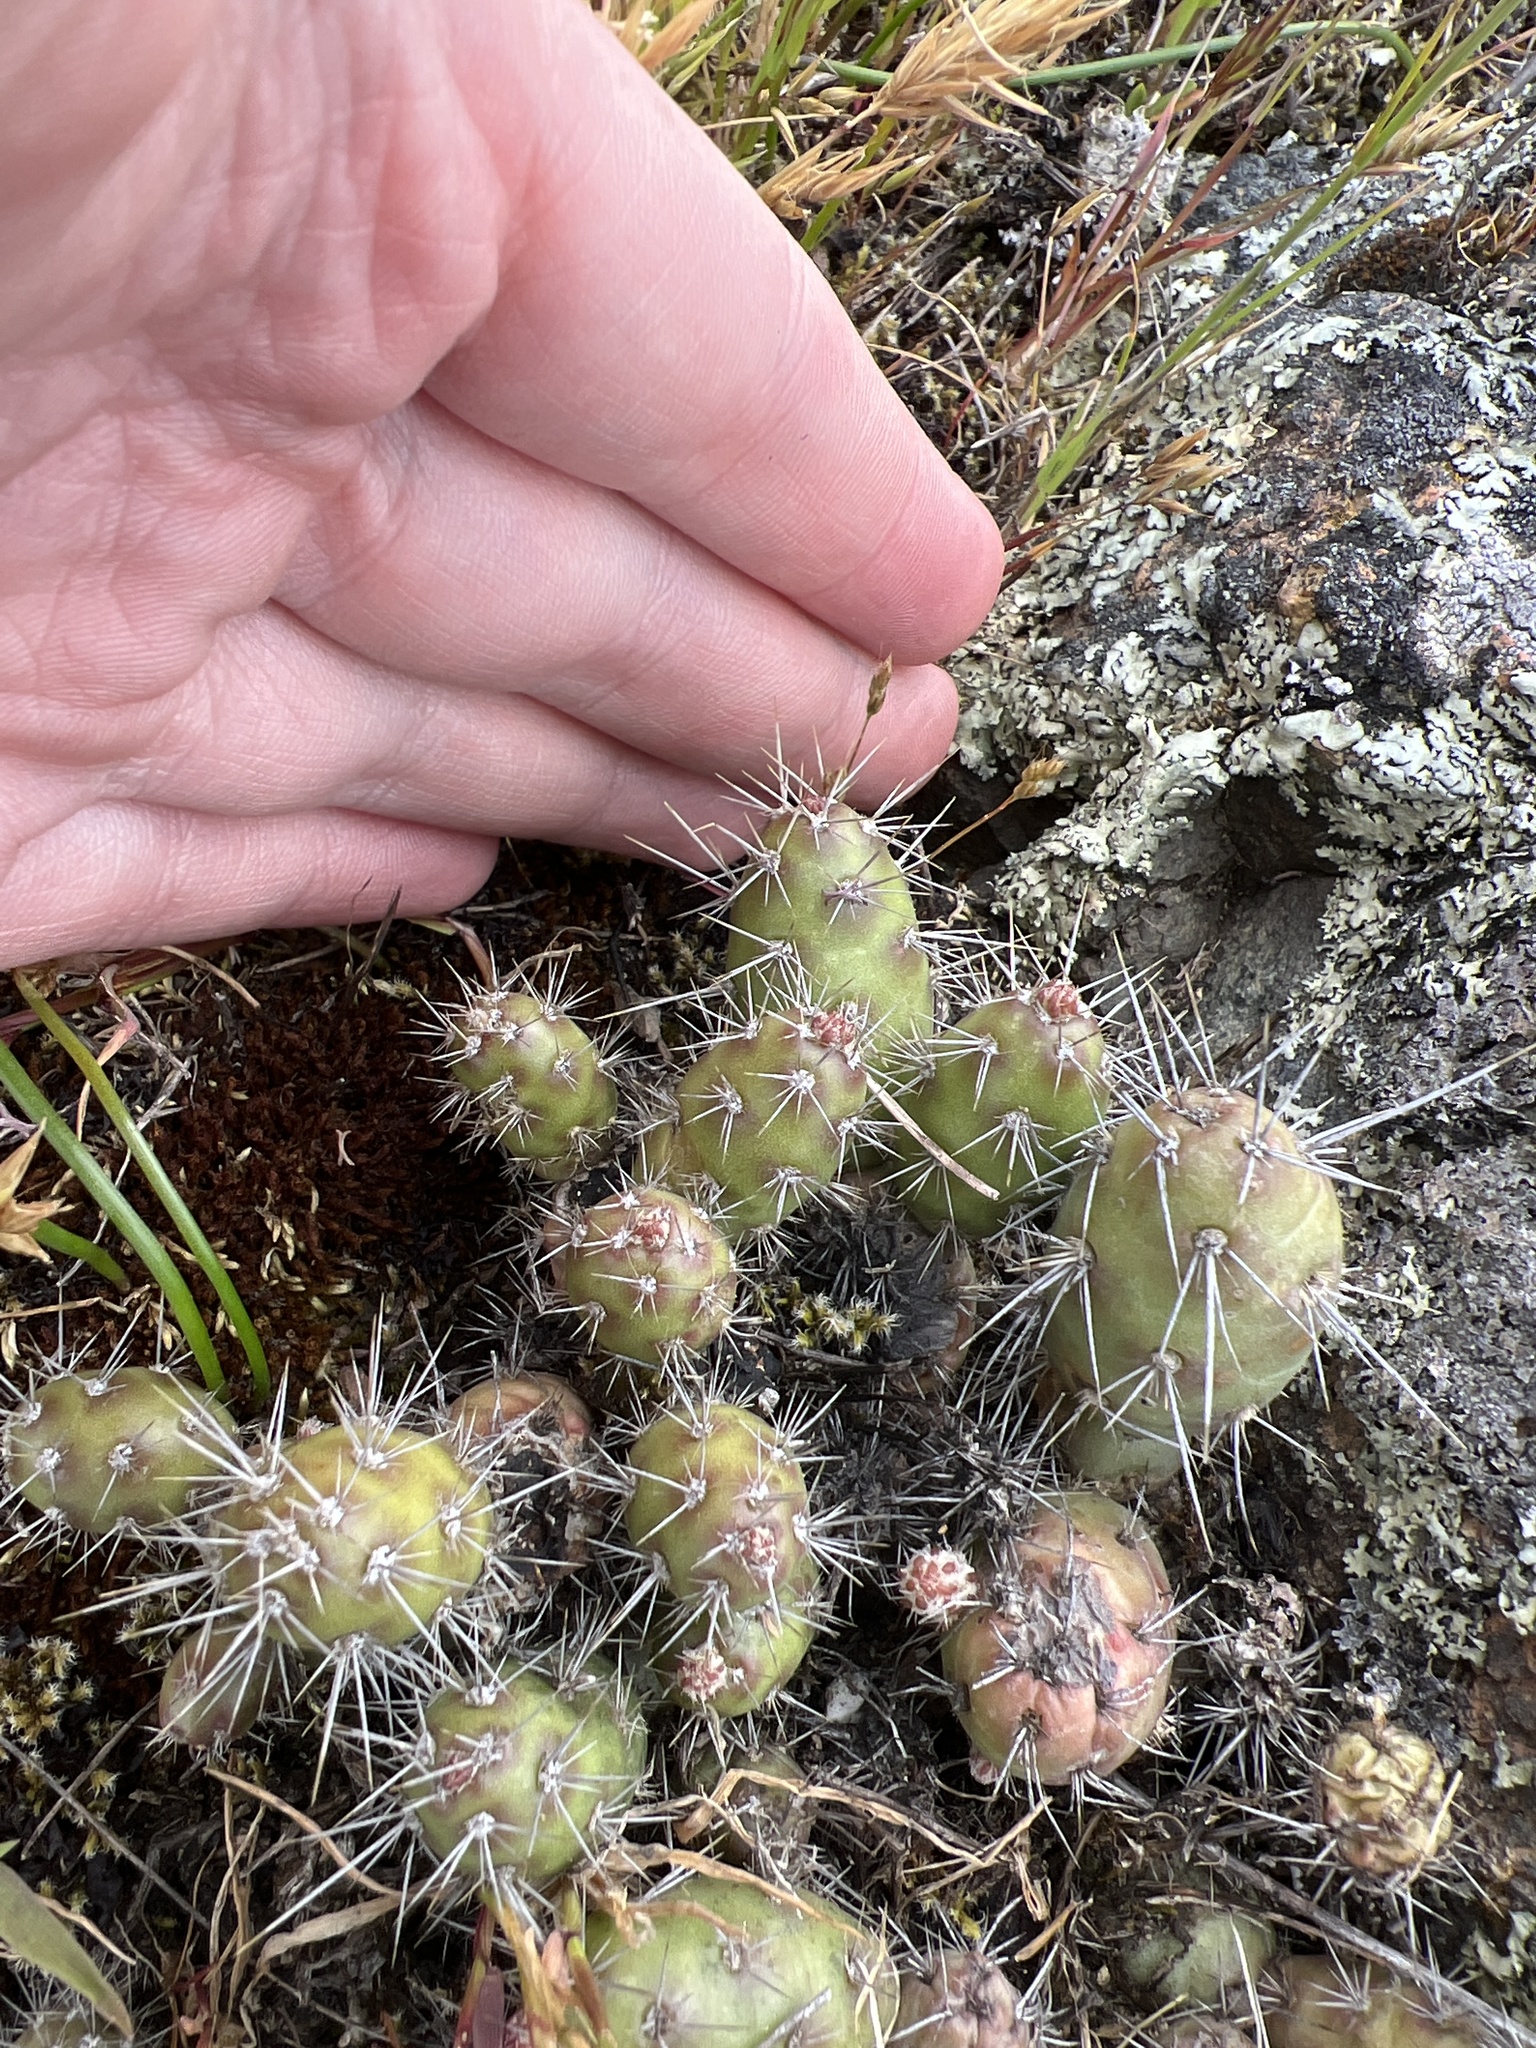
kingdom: Plantae
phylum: Tracheophyta
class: Magnoliopsida
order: Caryophyllales
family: Cactaceae
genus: Opuntia
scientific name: Opuntia fragilis
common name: Brittle cactus
